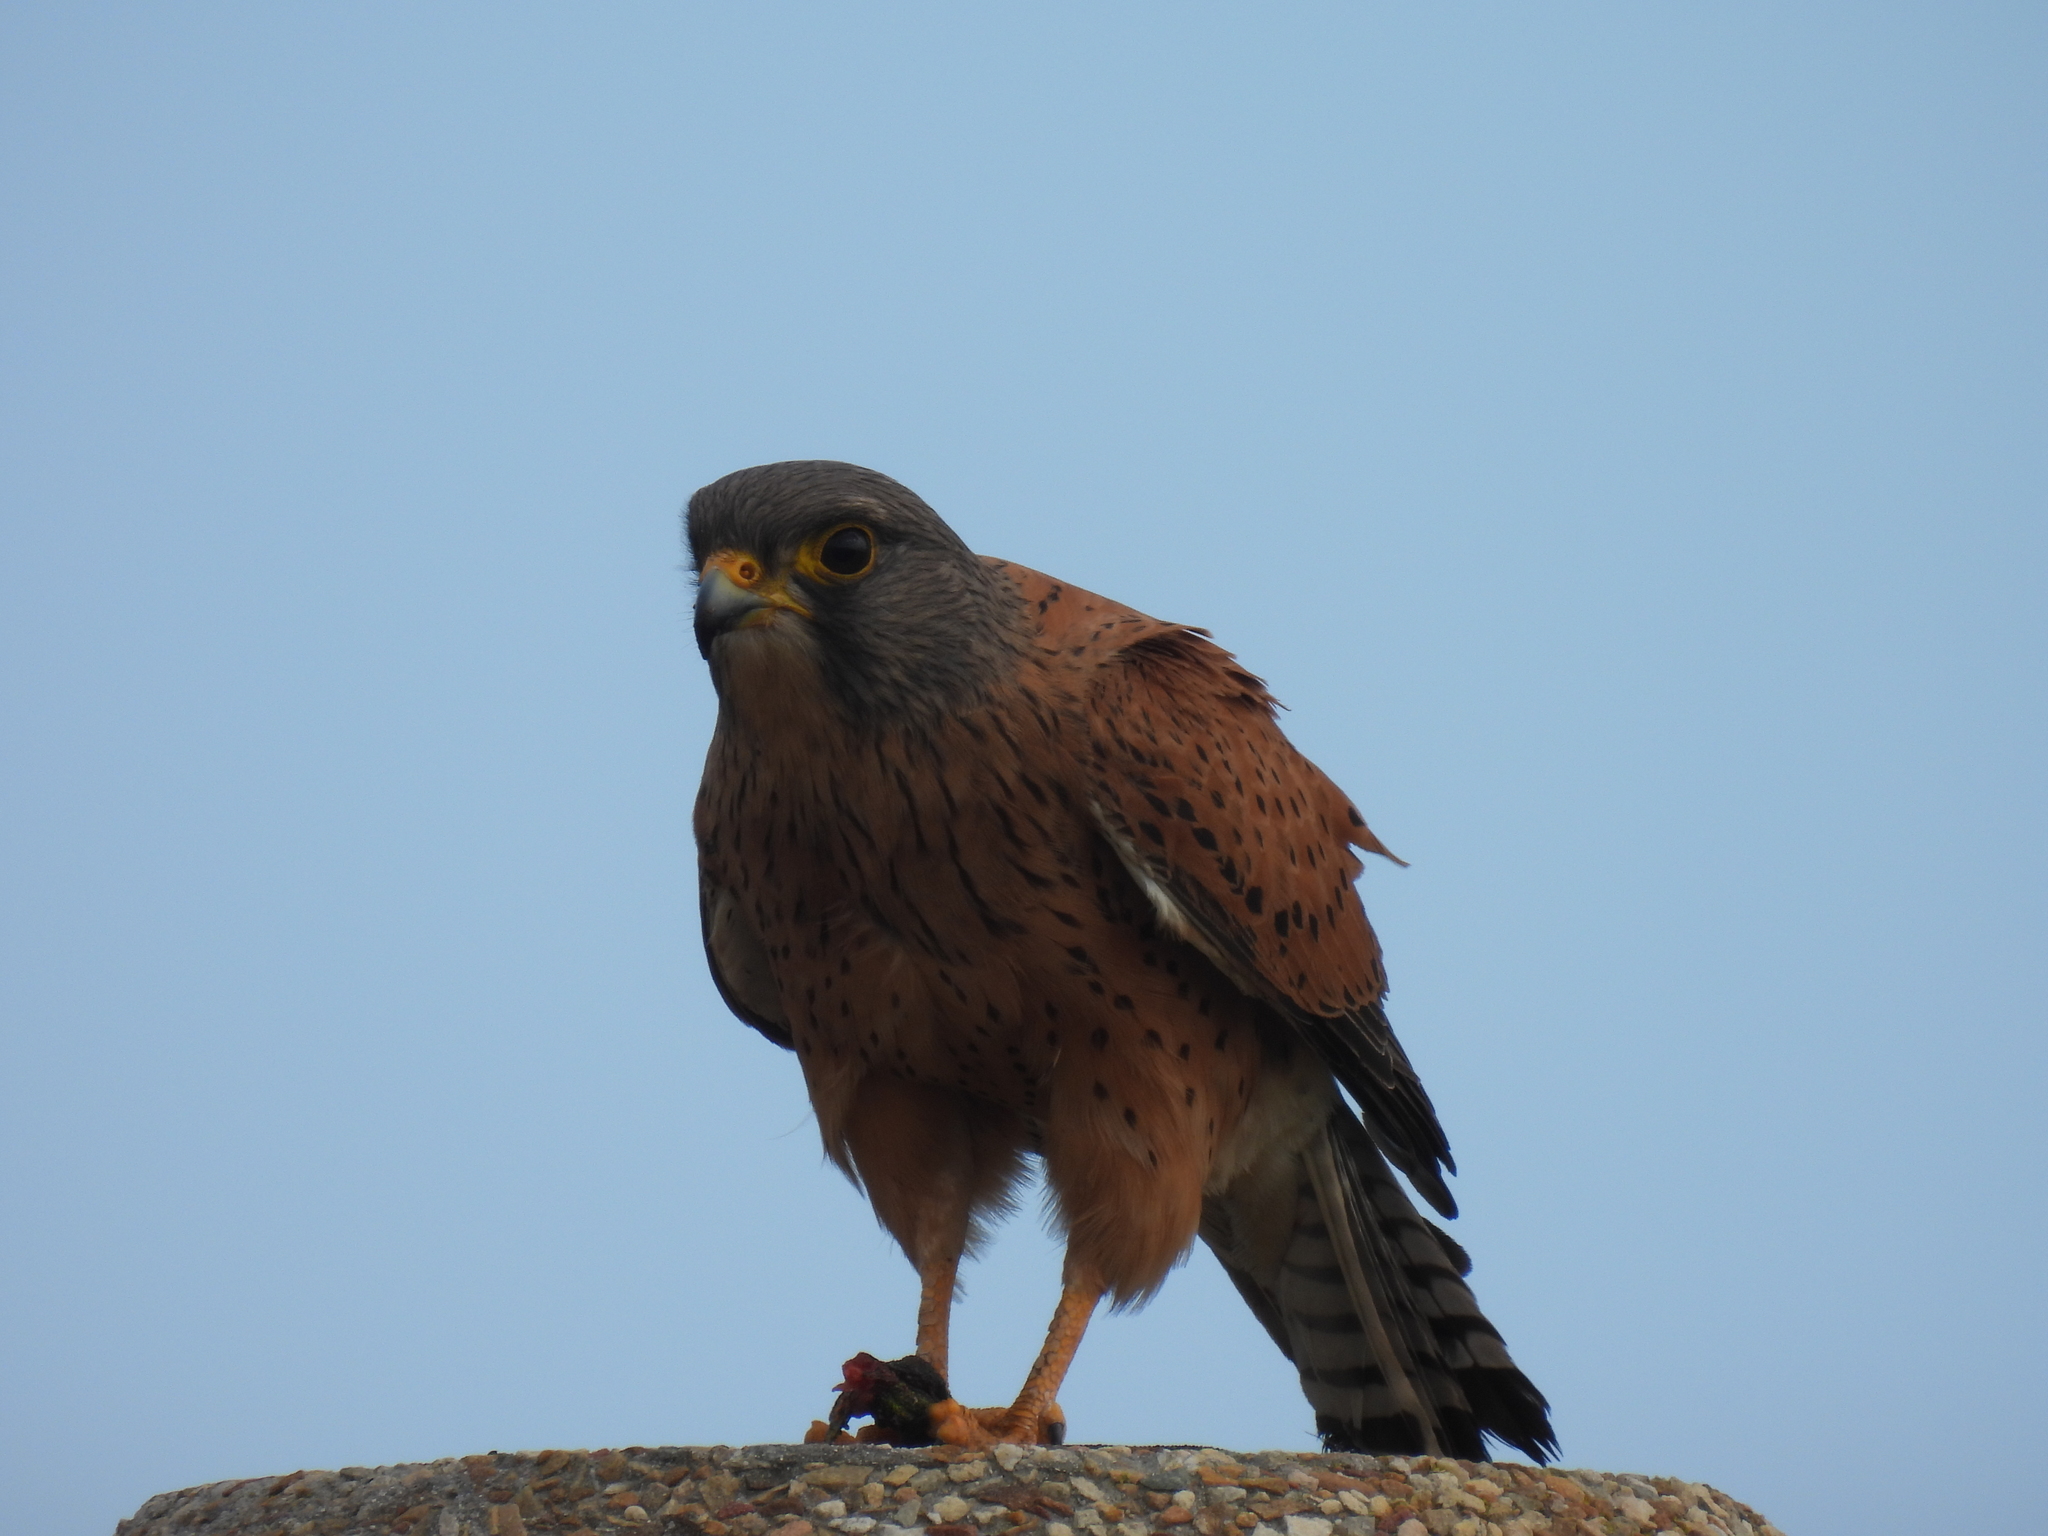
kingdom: Animalia
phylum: Chordata
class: Aves
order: Falconiformes
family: Falconidae
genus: Falco
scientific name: Falco rupicolus
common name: Rock kestrel
